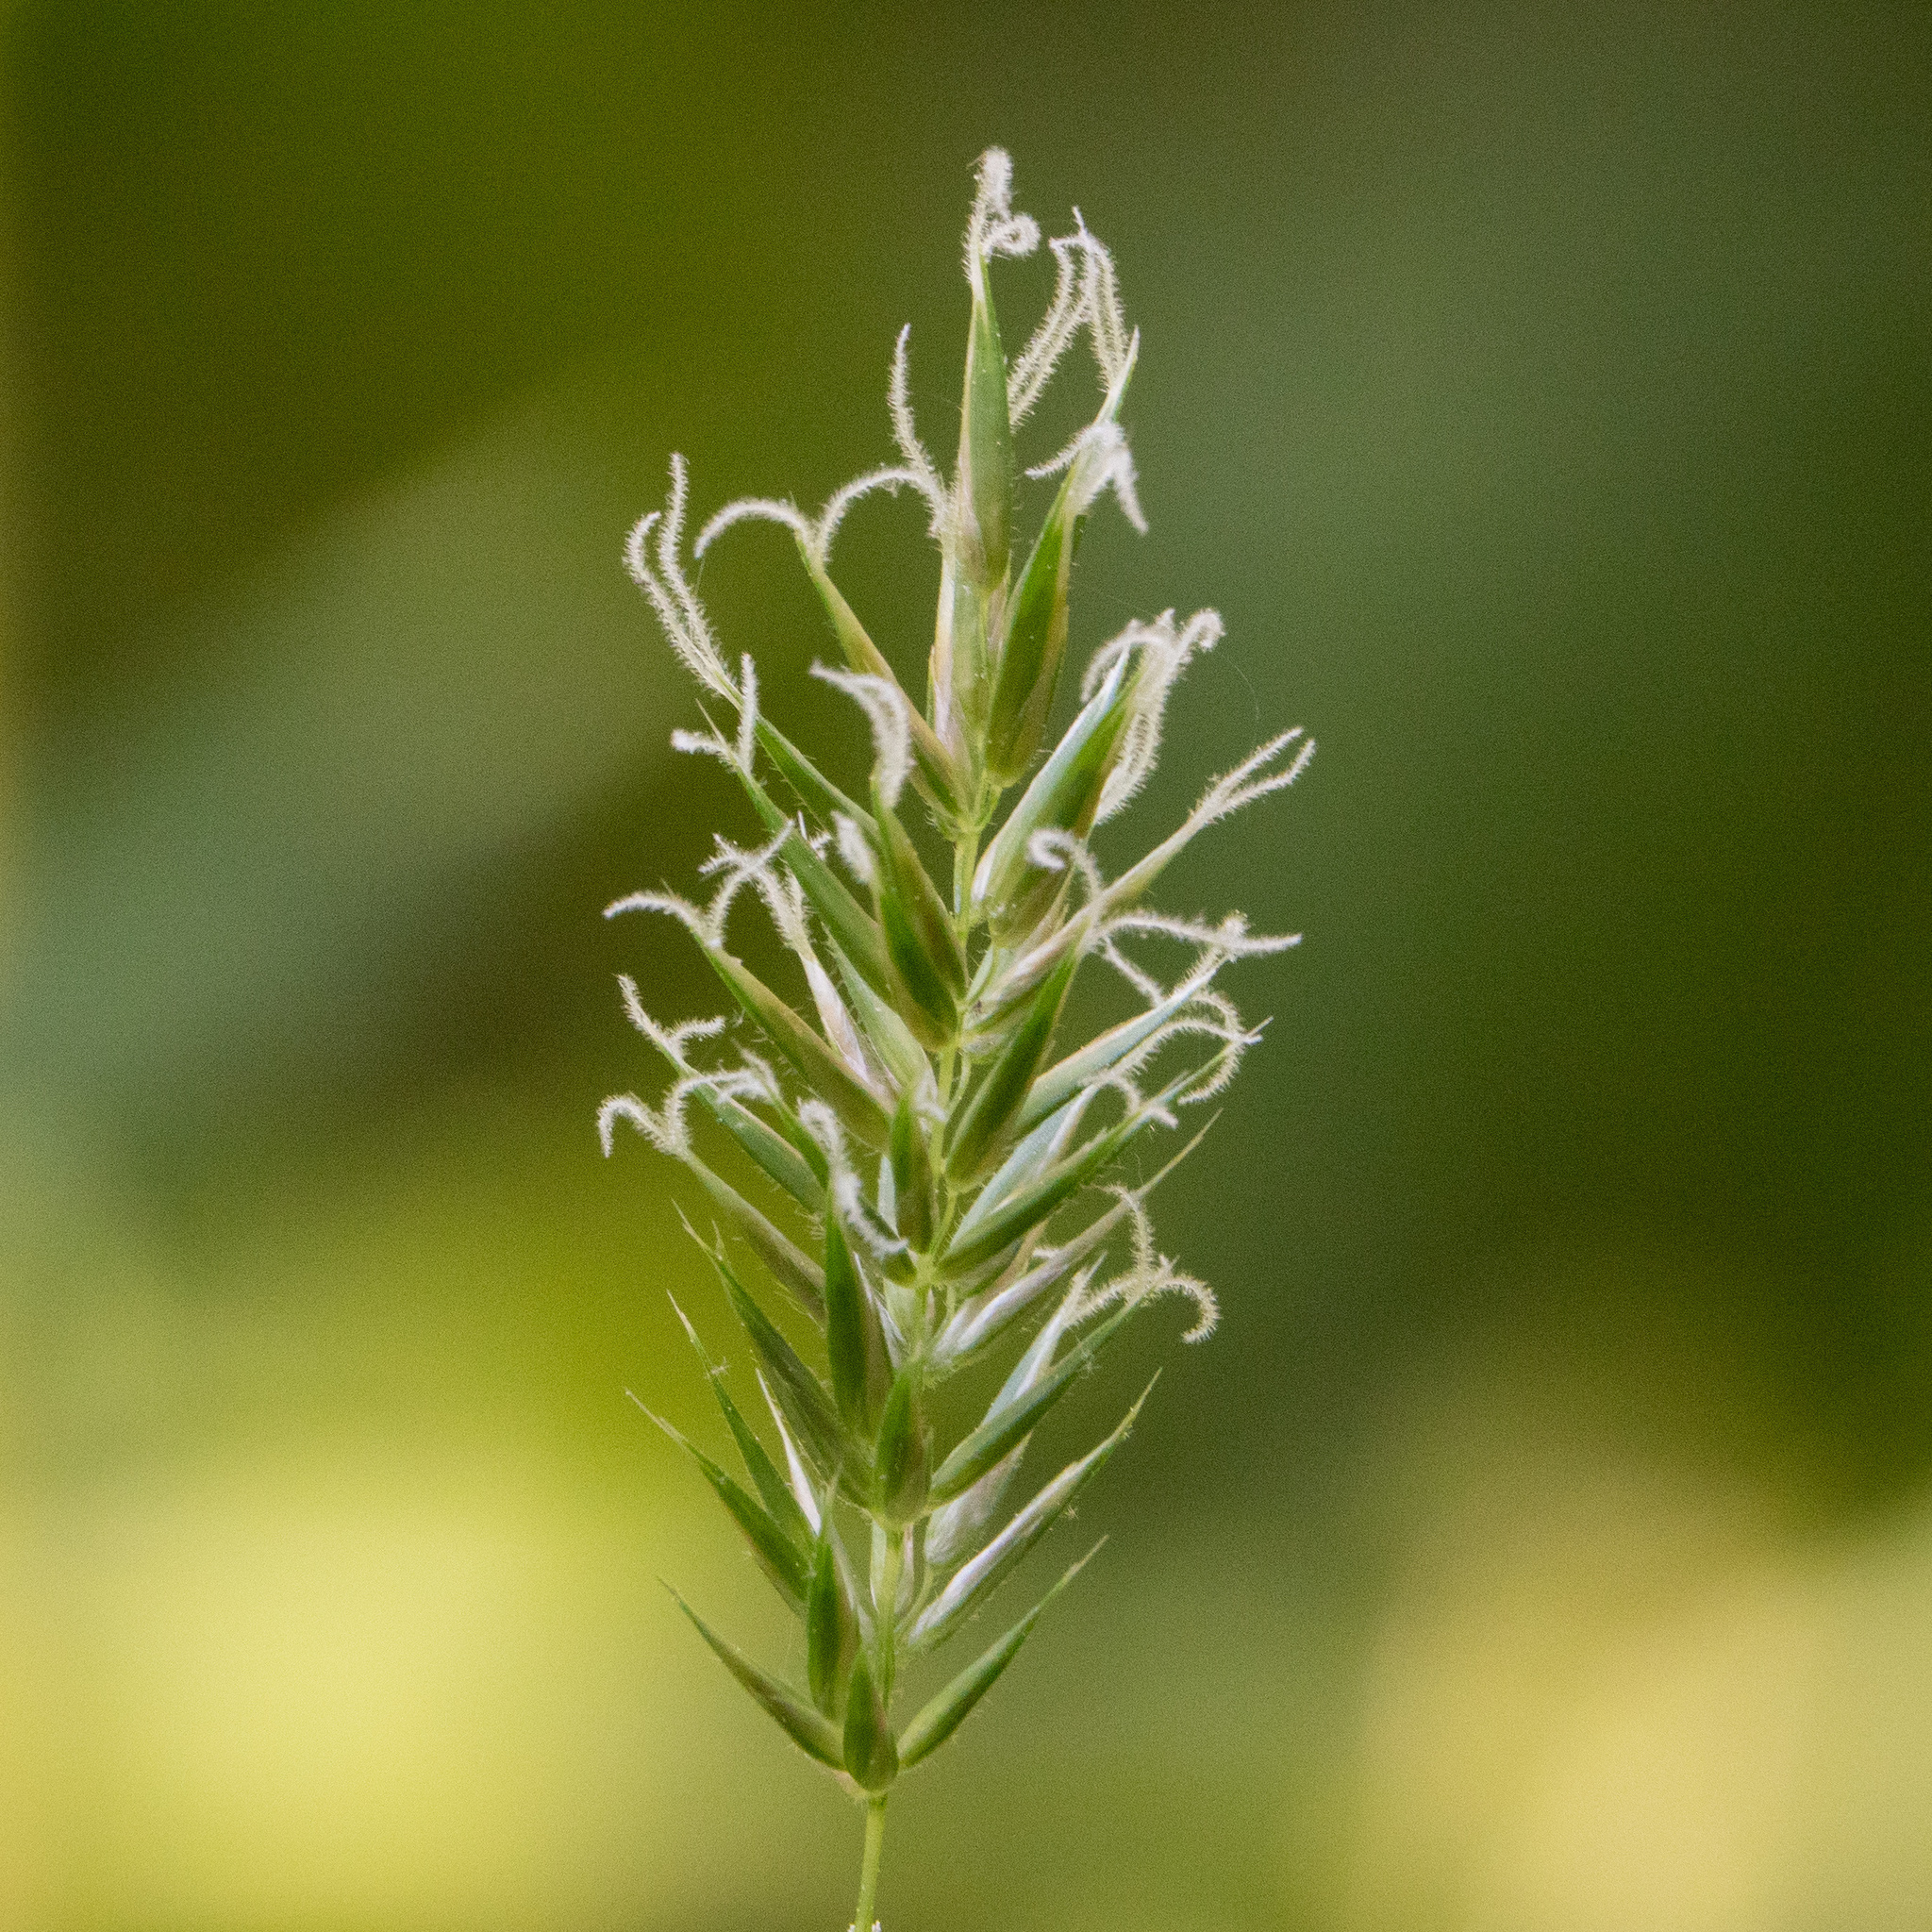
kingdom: Plantae
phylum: Tracheophyta
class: Liliopsida
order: Poales
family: Poaceae
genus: Anthoxanthum
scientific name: Anthoxanthum odoratum
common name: Sweet vernalgrass
